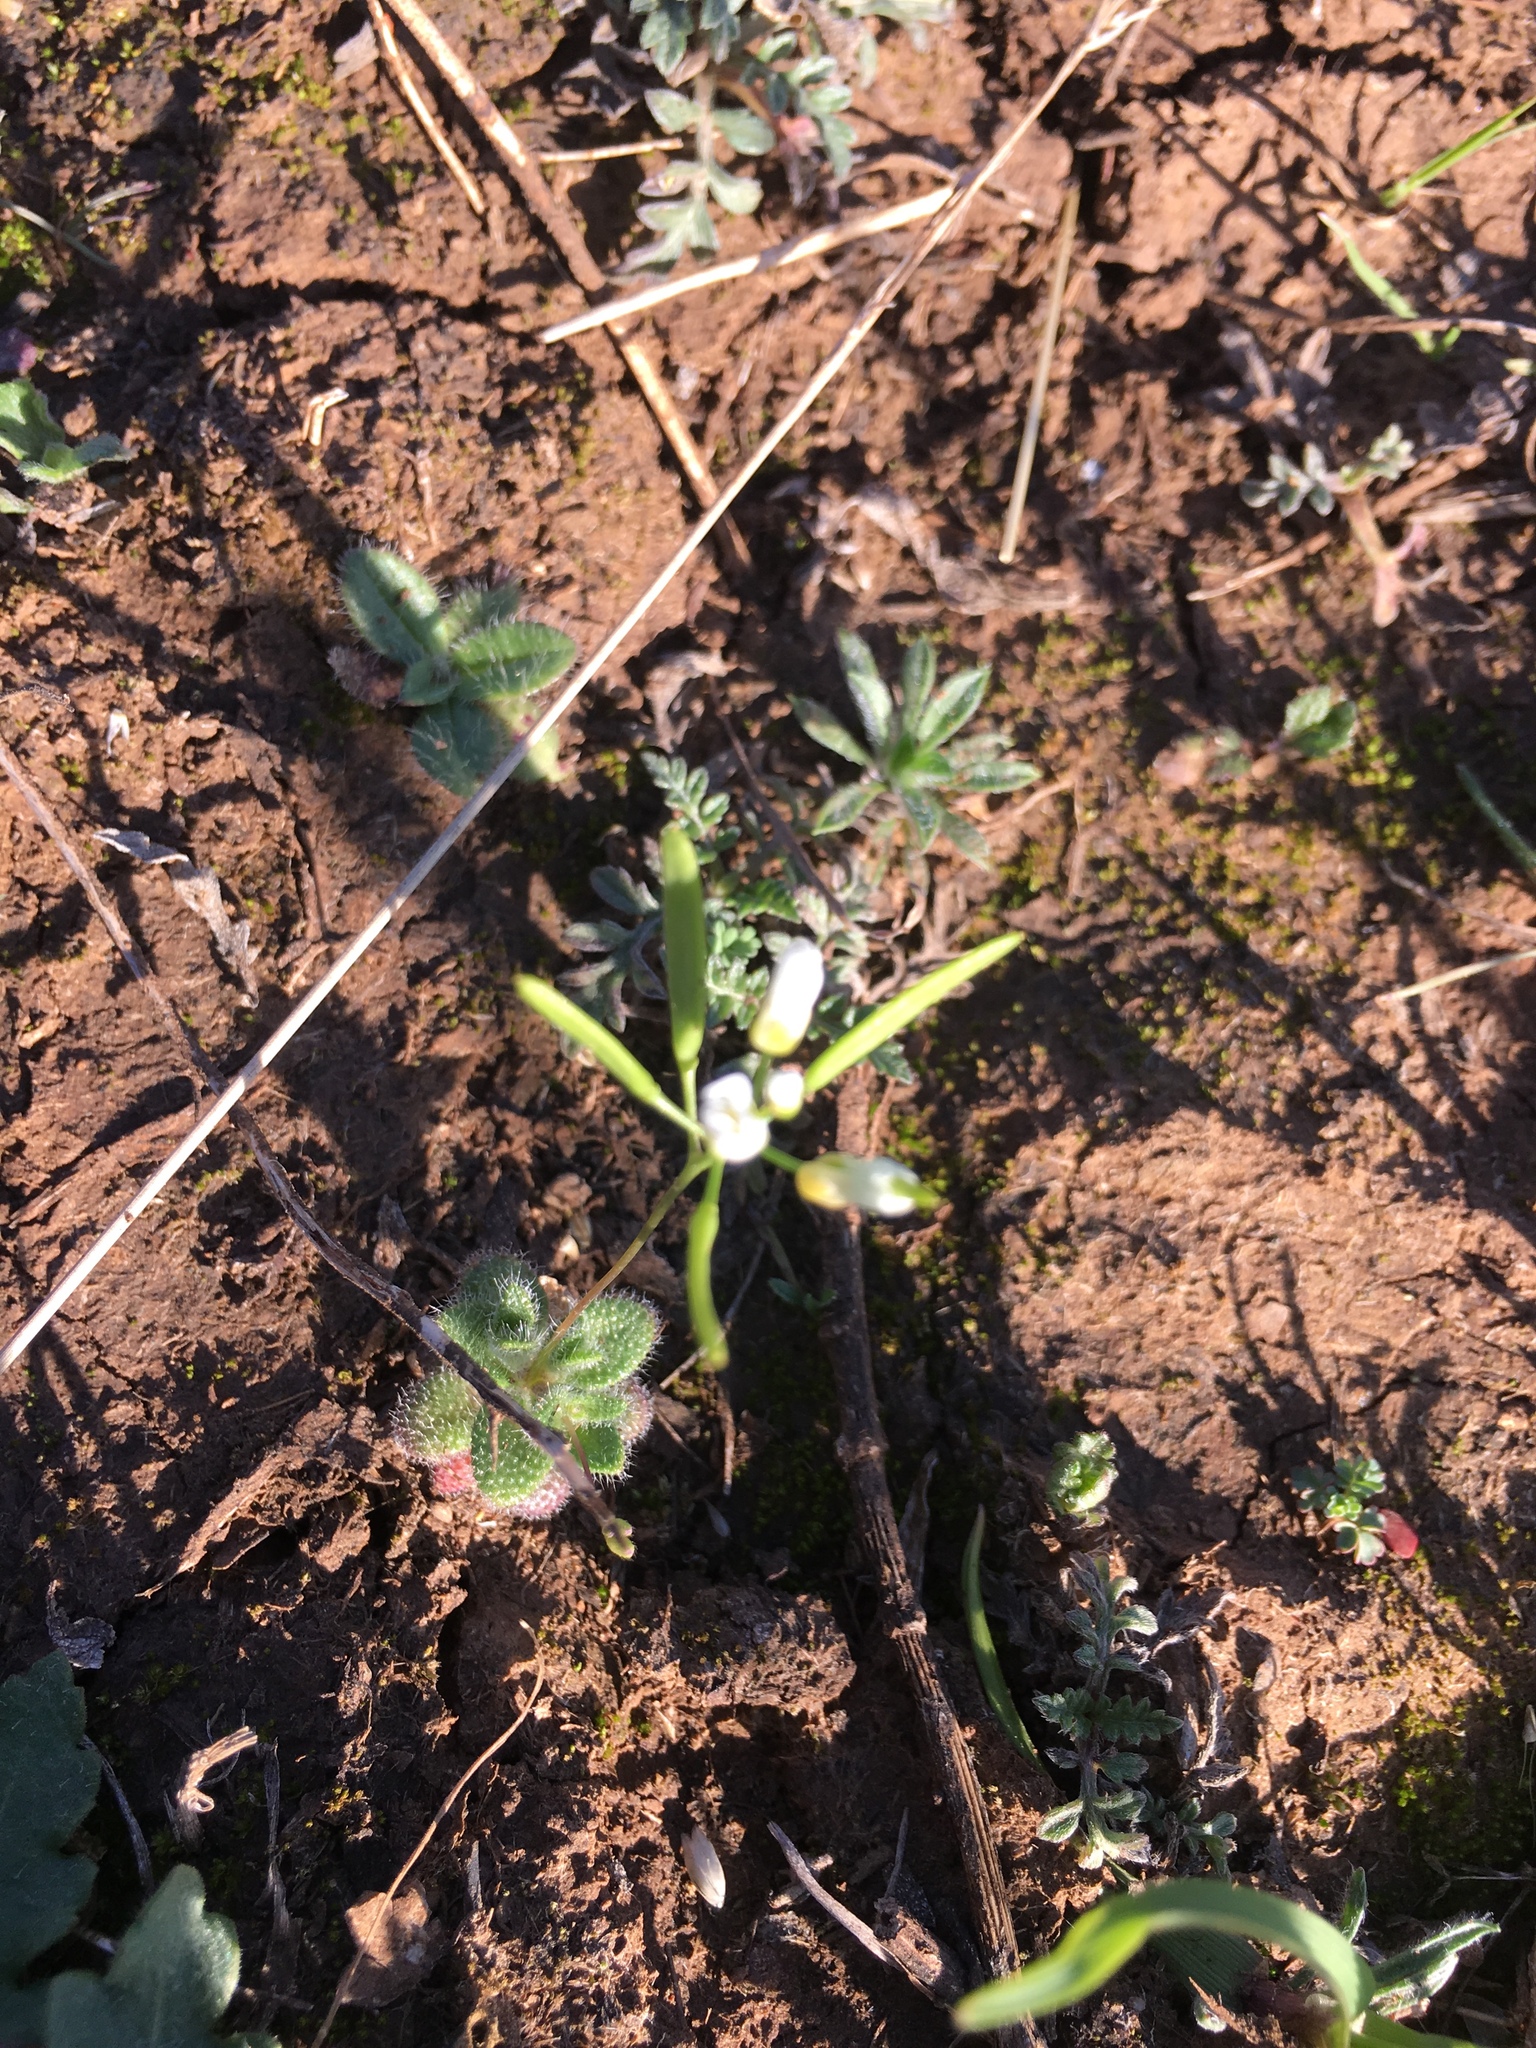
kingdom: Plantae
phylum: Tracheophyta
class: Magnoliopsida
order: Brassicales
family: Brassicaceae
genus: Tomostima
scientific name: Tomostima cuneifolia
